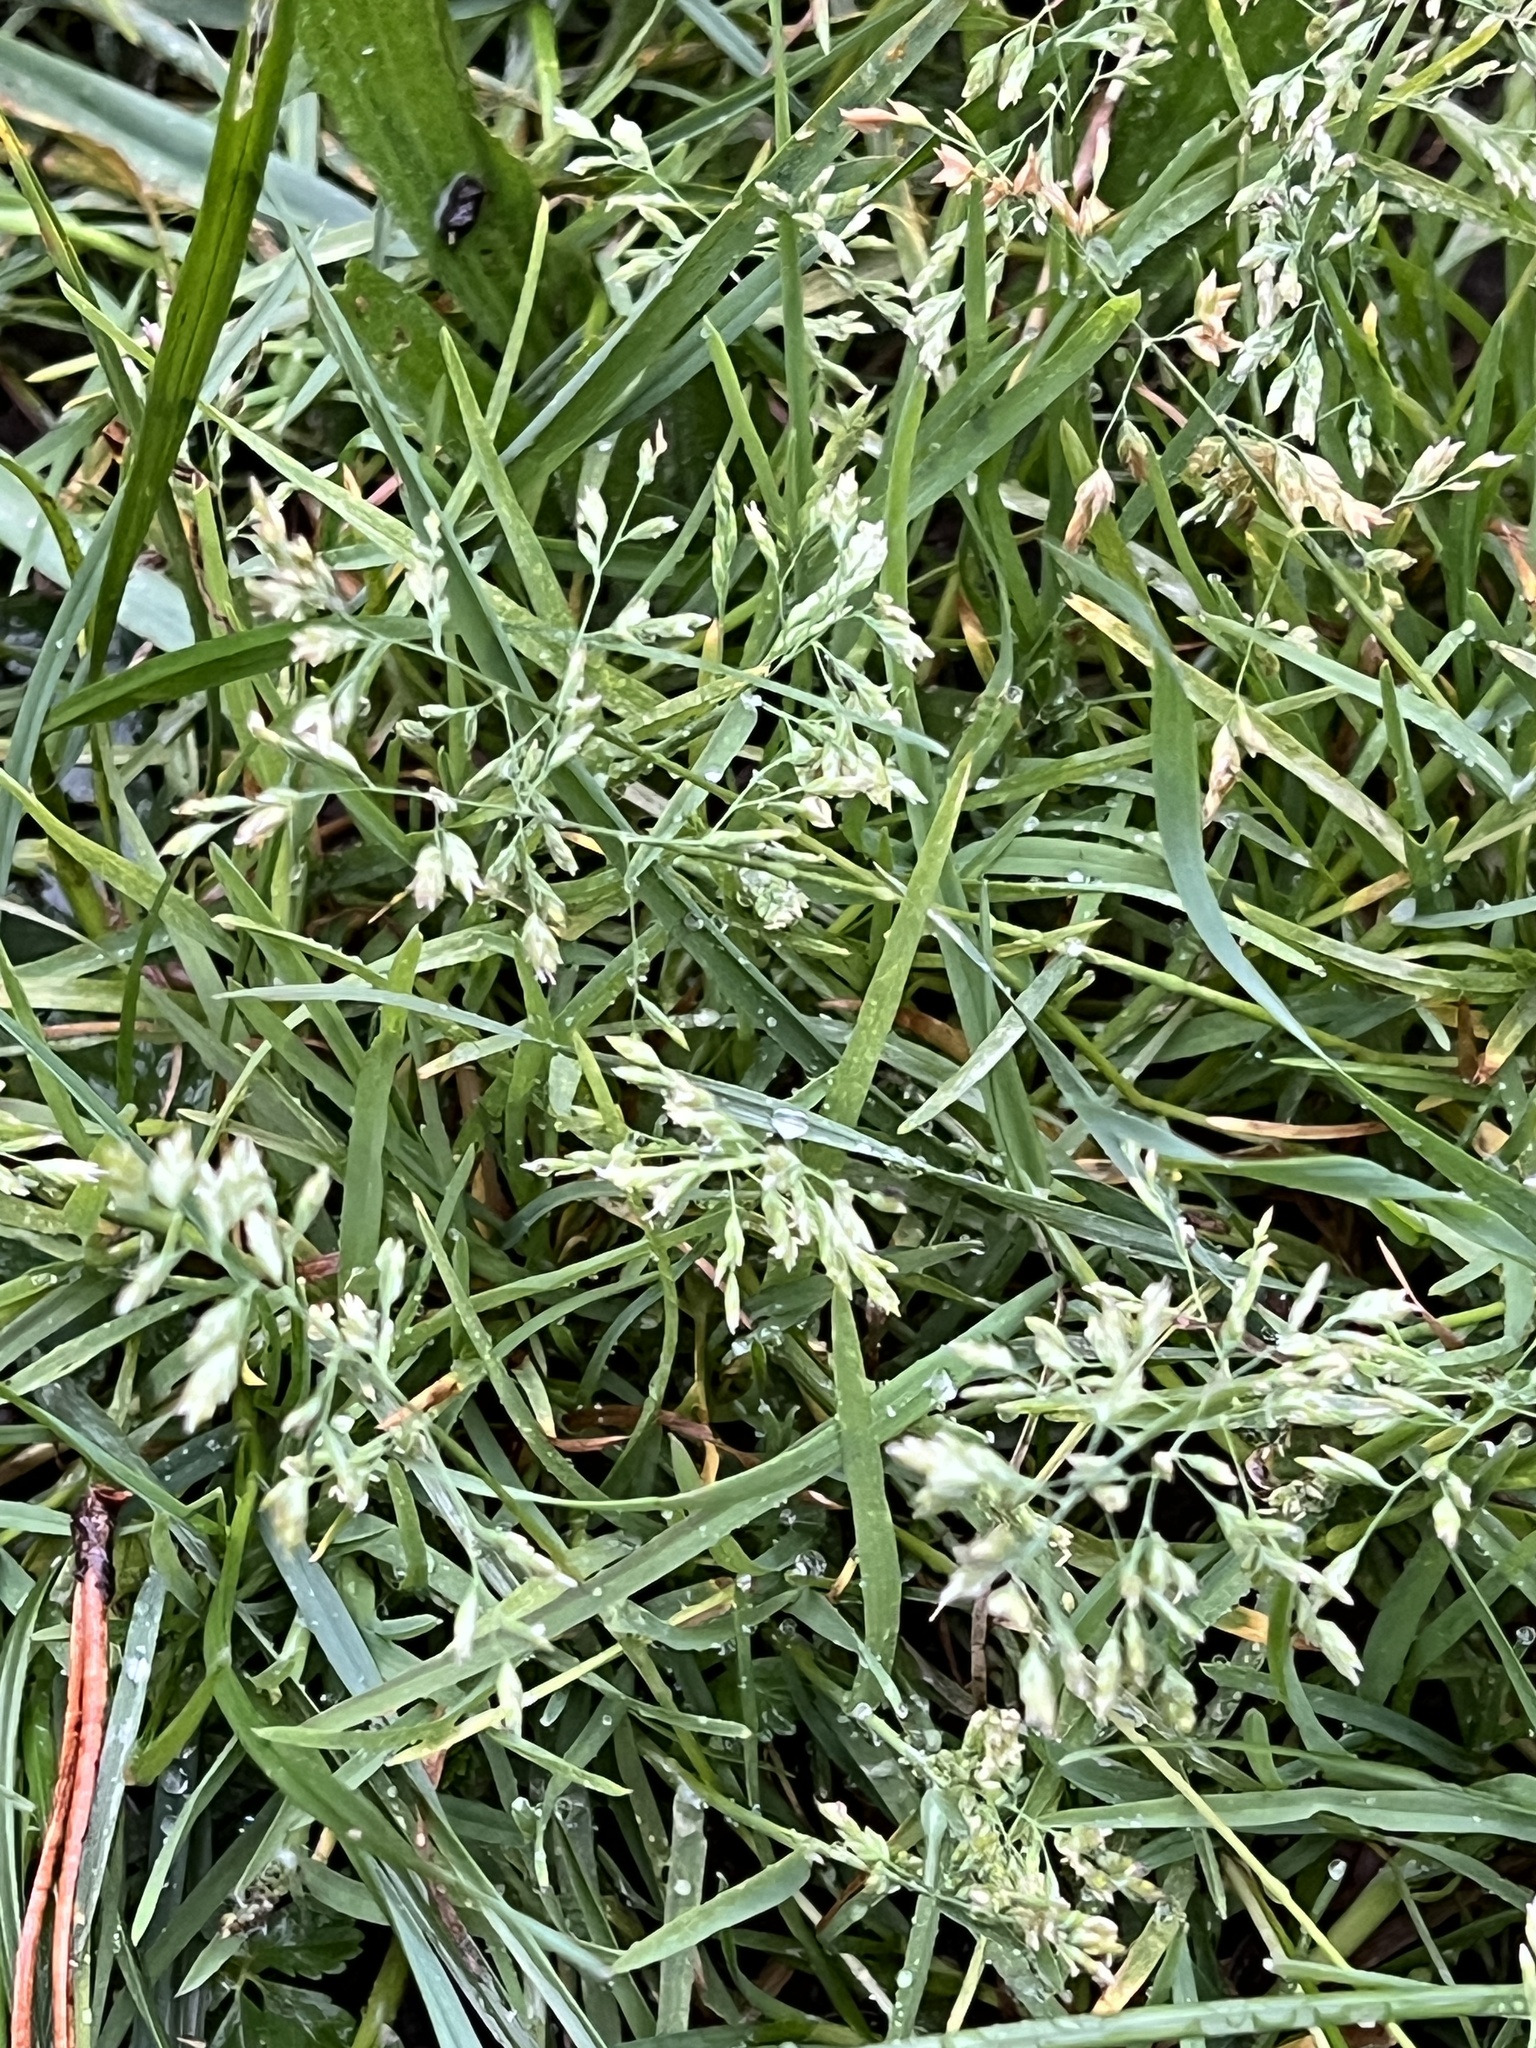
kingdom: Plantae
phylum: Tracheophyta
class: Liliopsida
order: Poales
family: Poaceae
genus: Poa
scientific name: Poa annua
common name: Annual bluegrass
